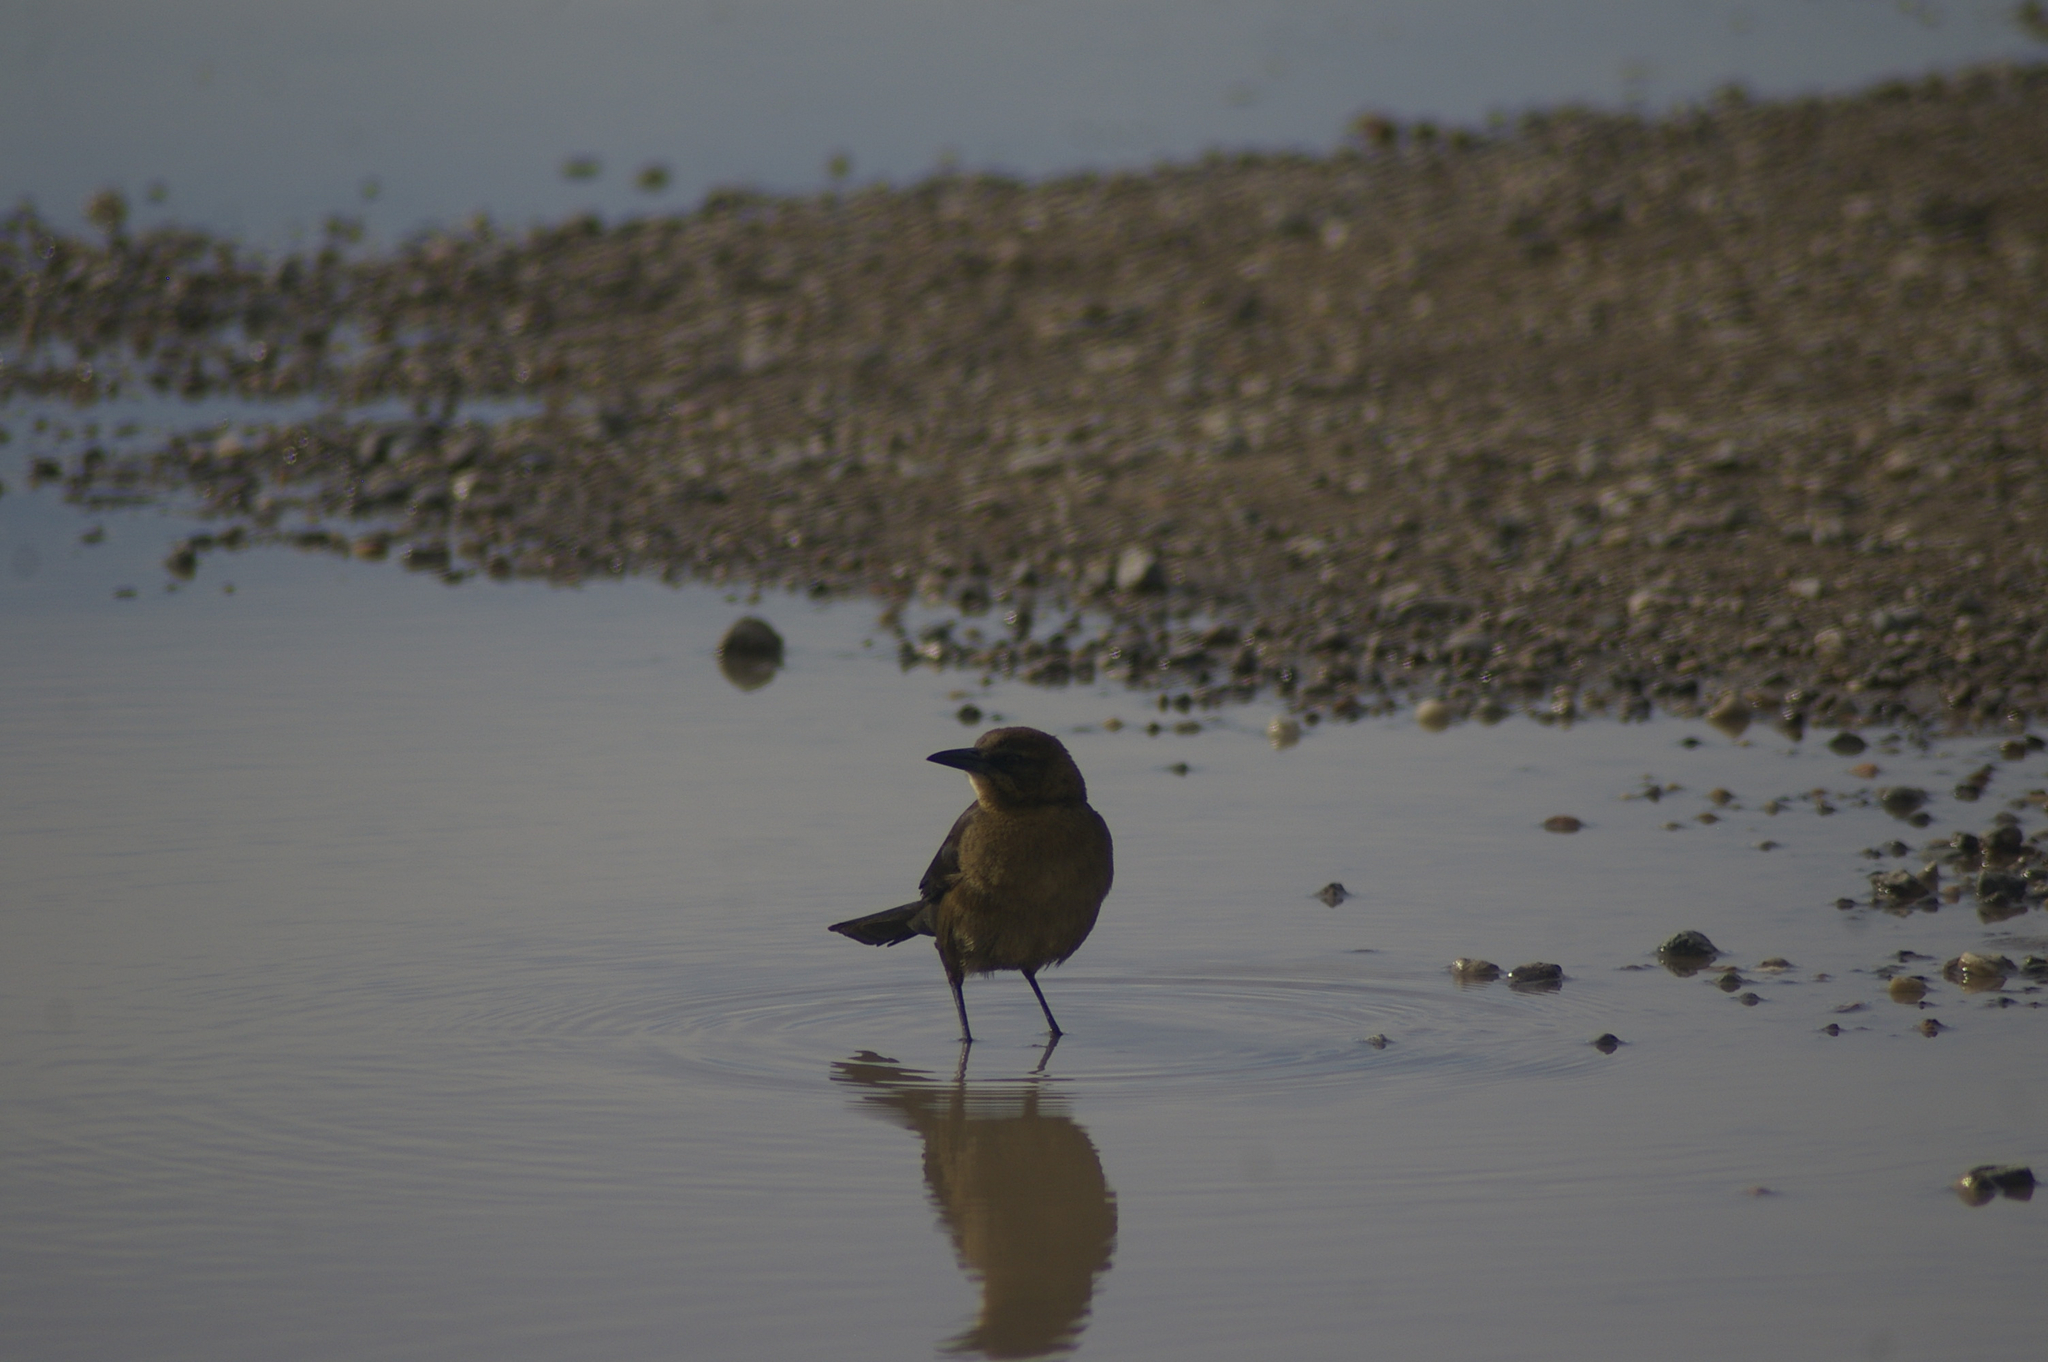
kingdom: Animalia
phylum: Chordata
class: Aves
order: Passeriformes
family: Icteridae
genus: Quiscalus
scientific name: Quiscalus mexicanus
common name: Great-tailed grackle
